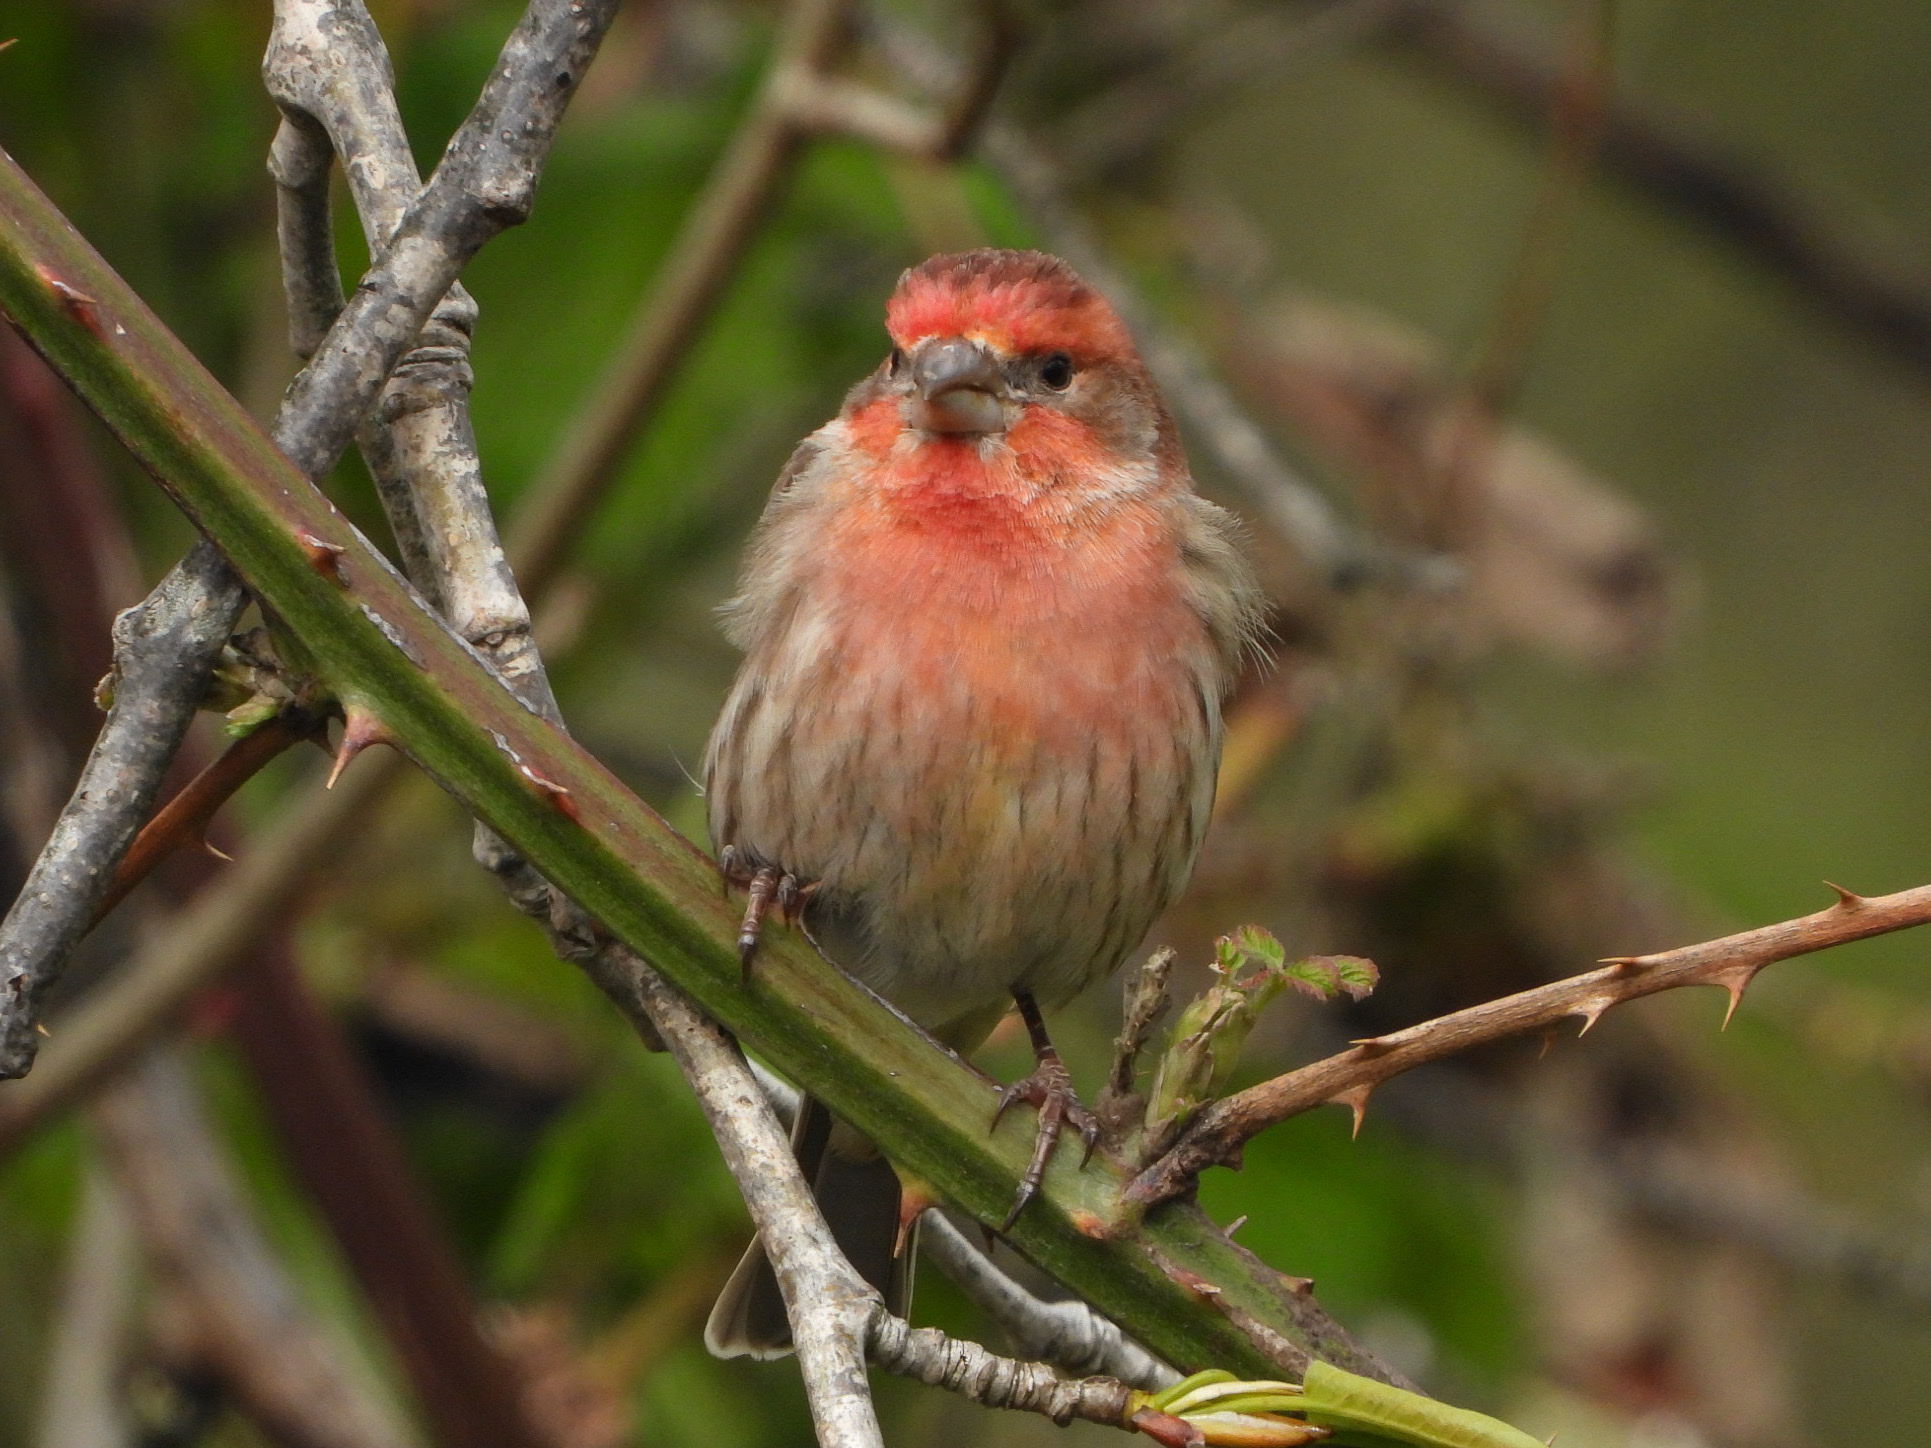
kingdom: Animalia
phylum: Chordata
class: Aves
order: Passeriformes
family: Fringillidae
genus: Haemorhous
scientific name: Haemorhous mexicanus
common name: House finch
